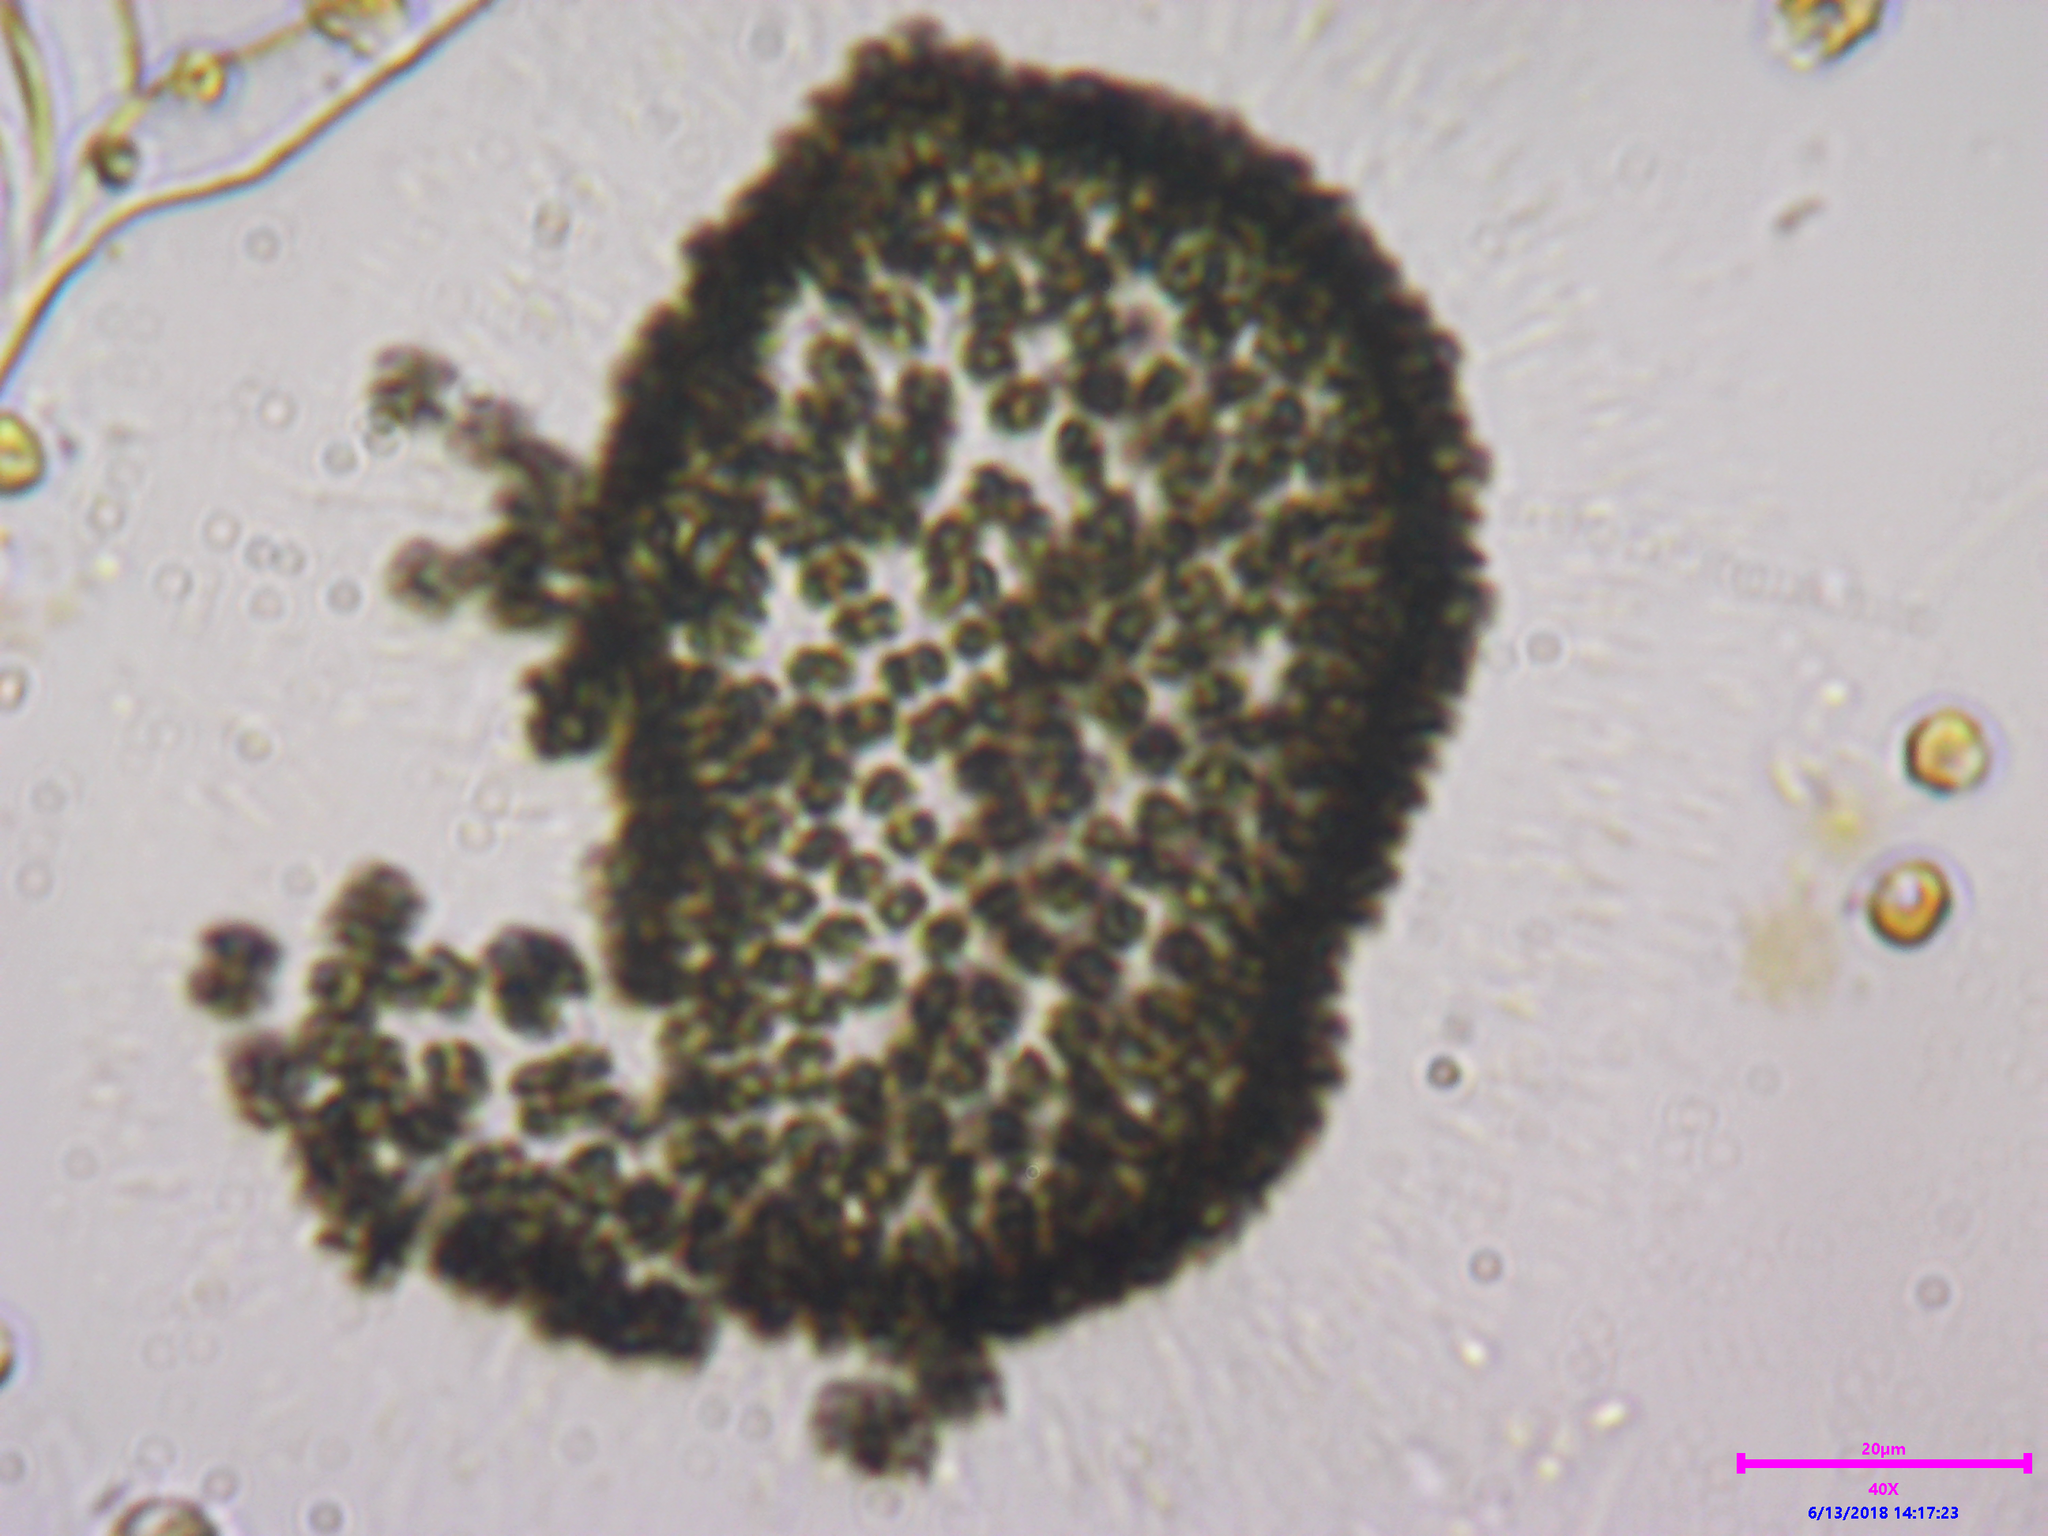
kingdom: Bacteria
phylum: Cyanobacteria
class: Cyanobacteriia
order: Synechococcales
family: Coelosphaeriaceae
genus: Woronichinia
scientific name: Woronichinia naegeliana
